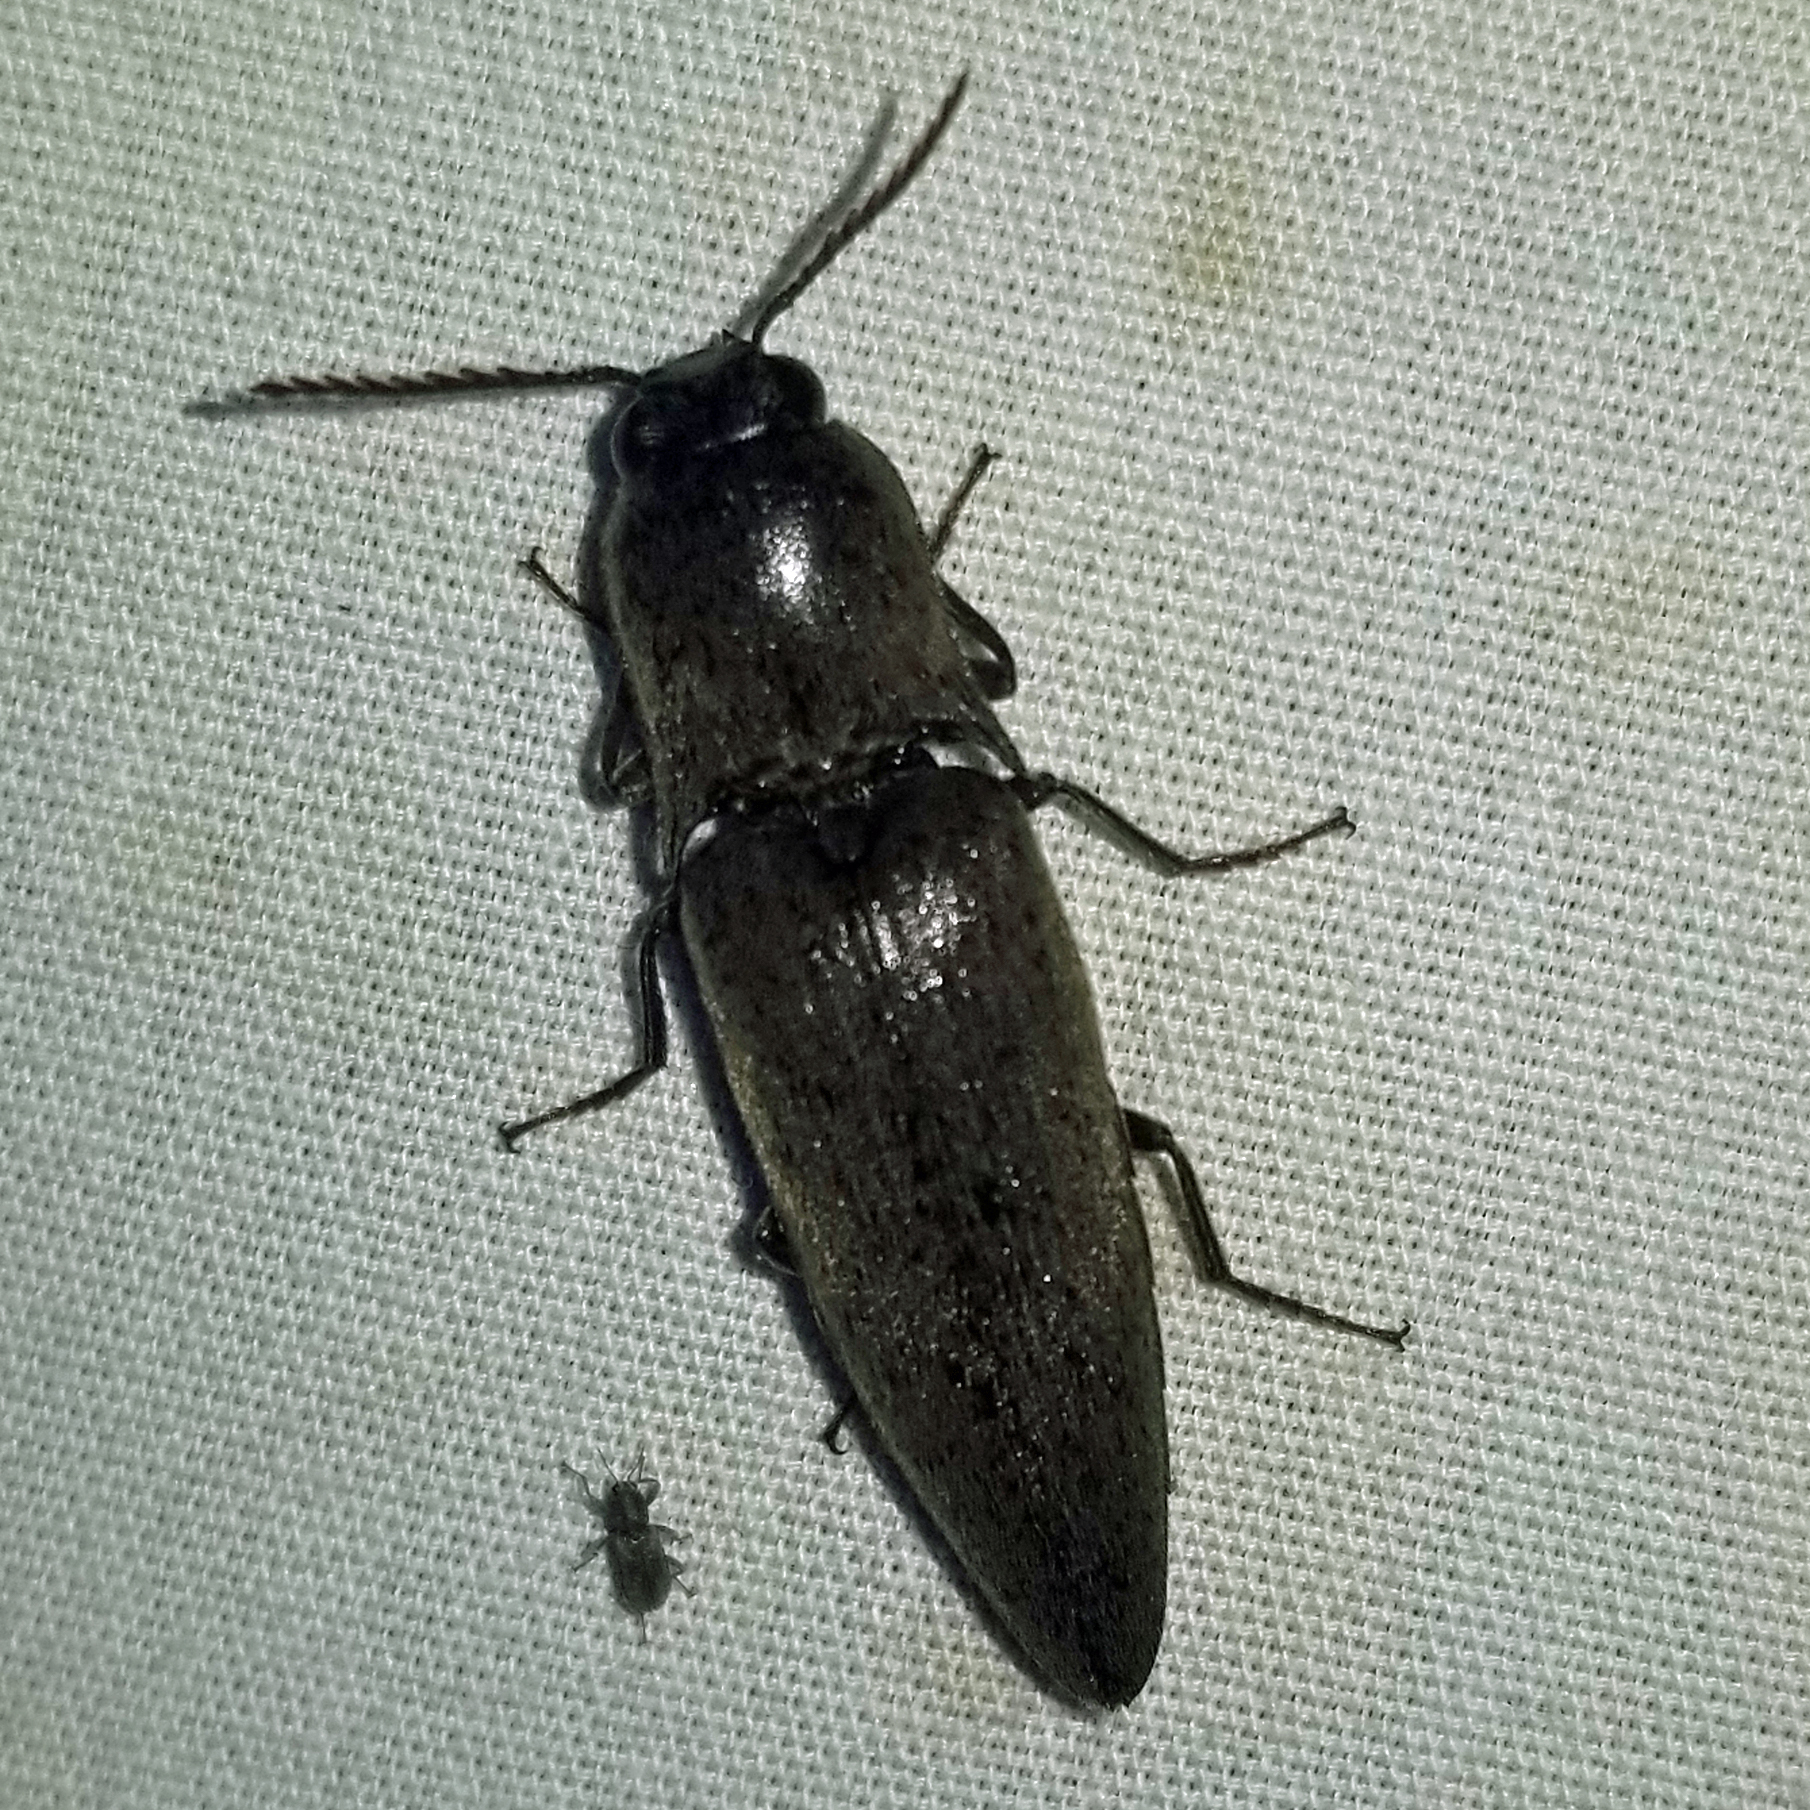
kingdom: Animalia
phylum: Arthropoda
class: Insecta
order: Coleoptera
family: Elateridae
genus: Orthostethus
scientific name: Orthostethus infuscatus
